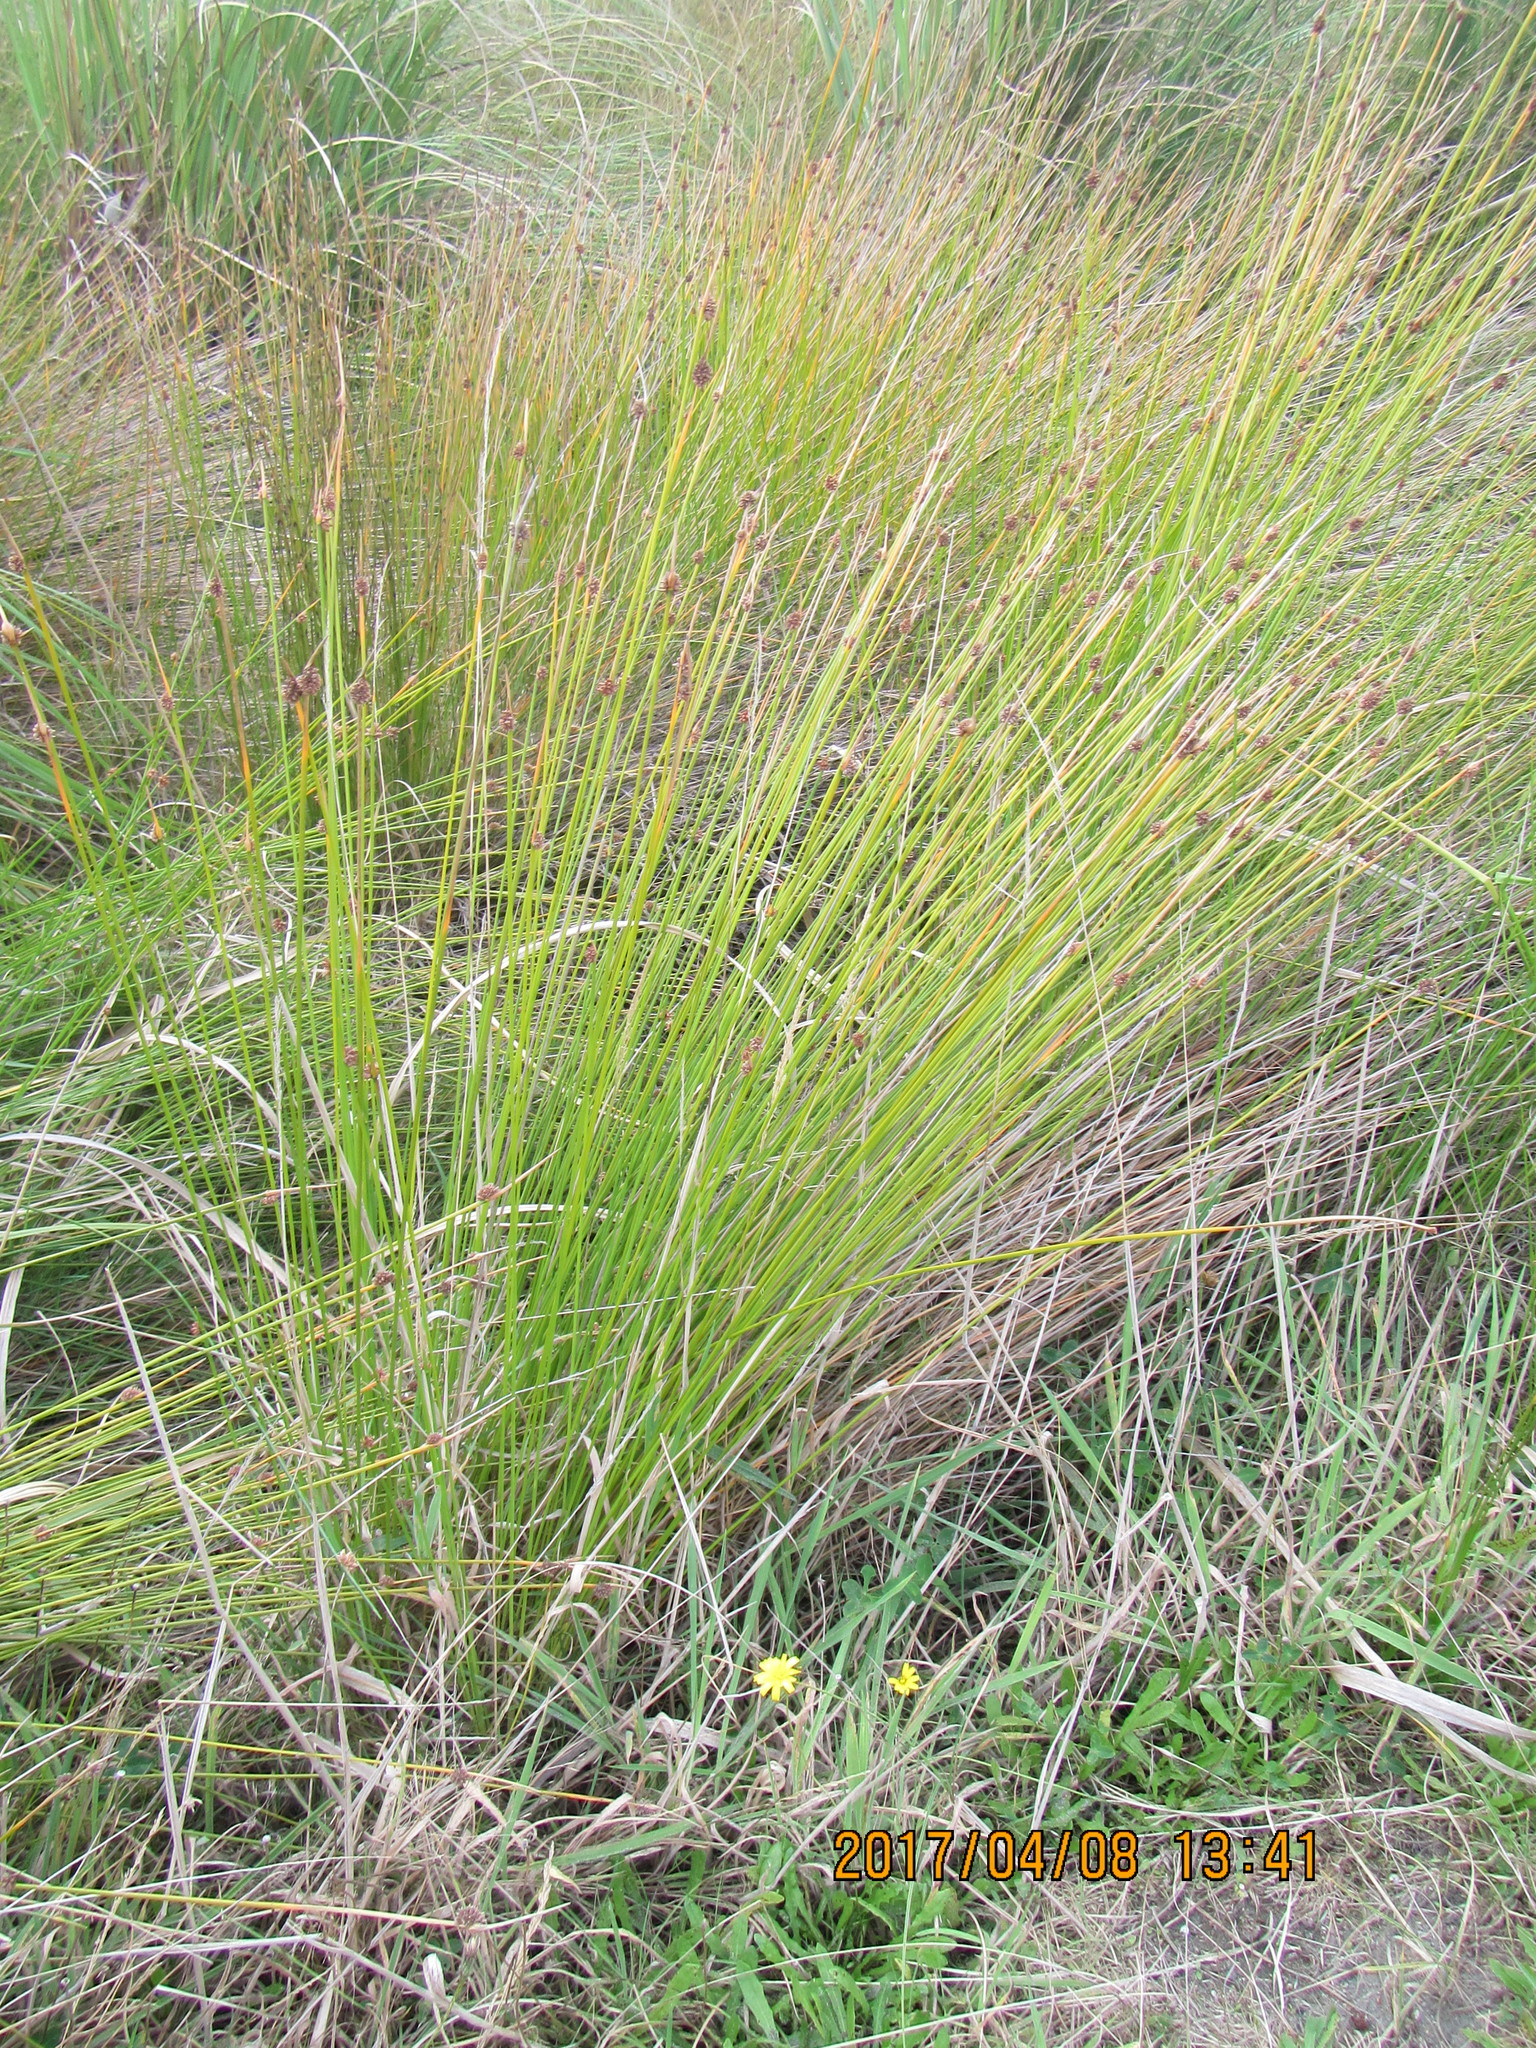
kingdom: Plantae
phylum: Tracheophyta
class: Liliopsida
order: Poales
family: Cyperaceae
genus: Ficinia
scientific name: Ficinia nodosa
